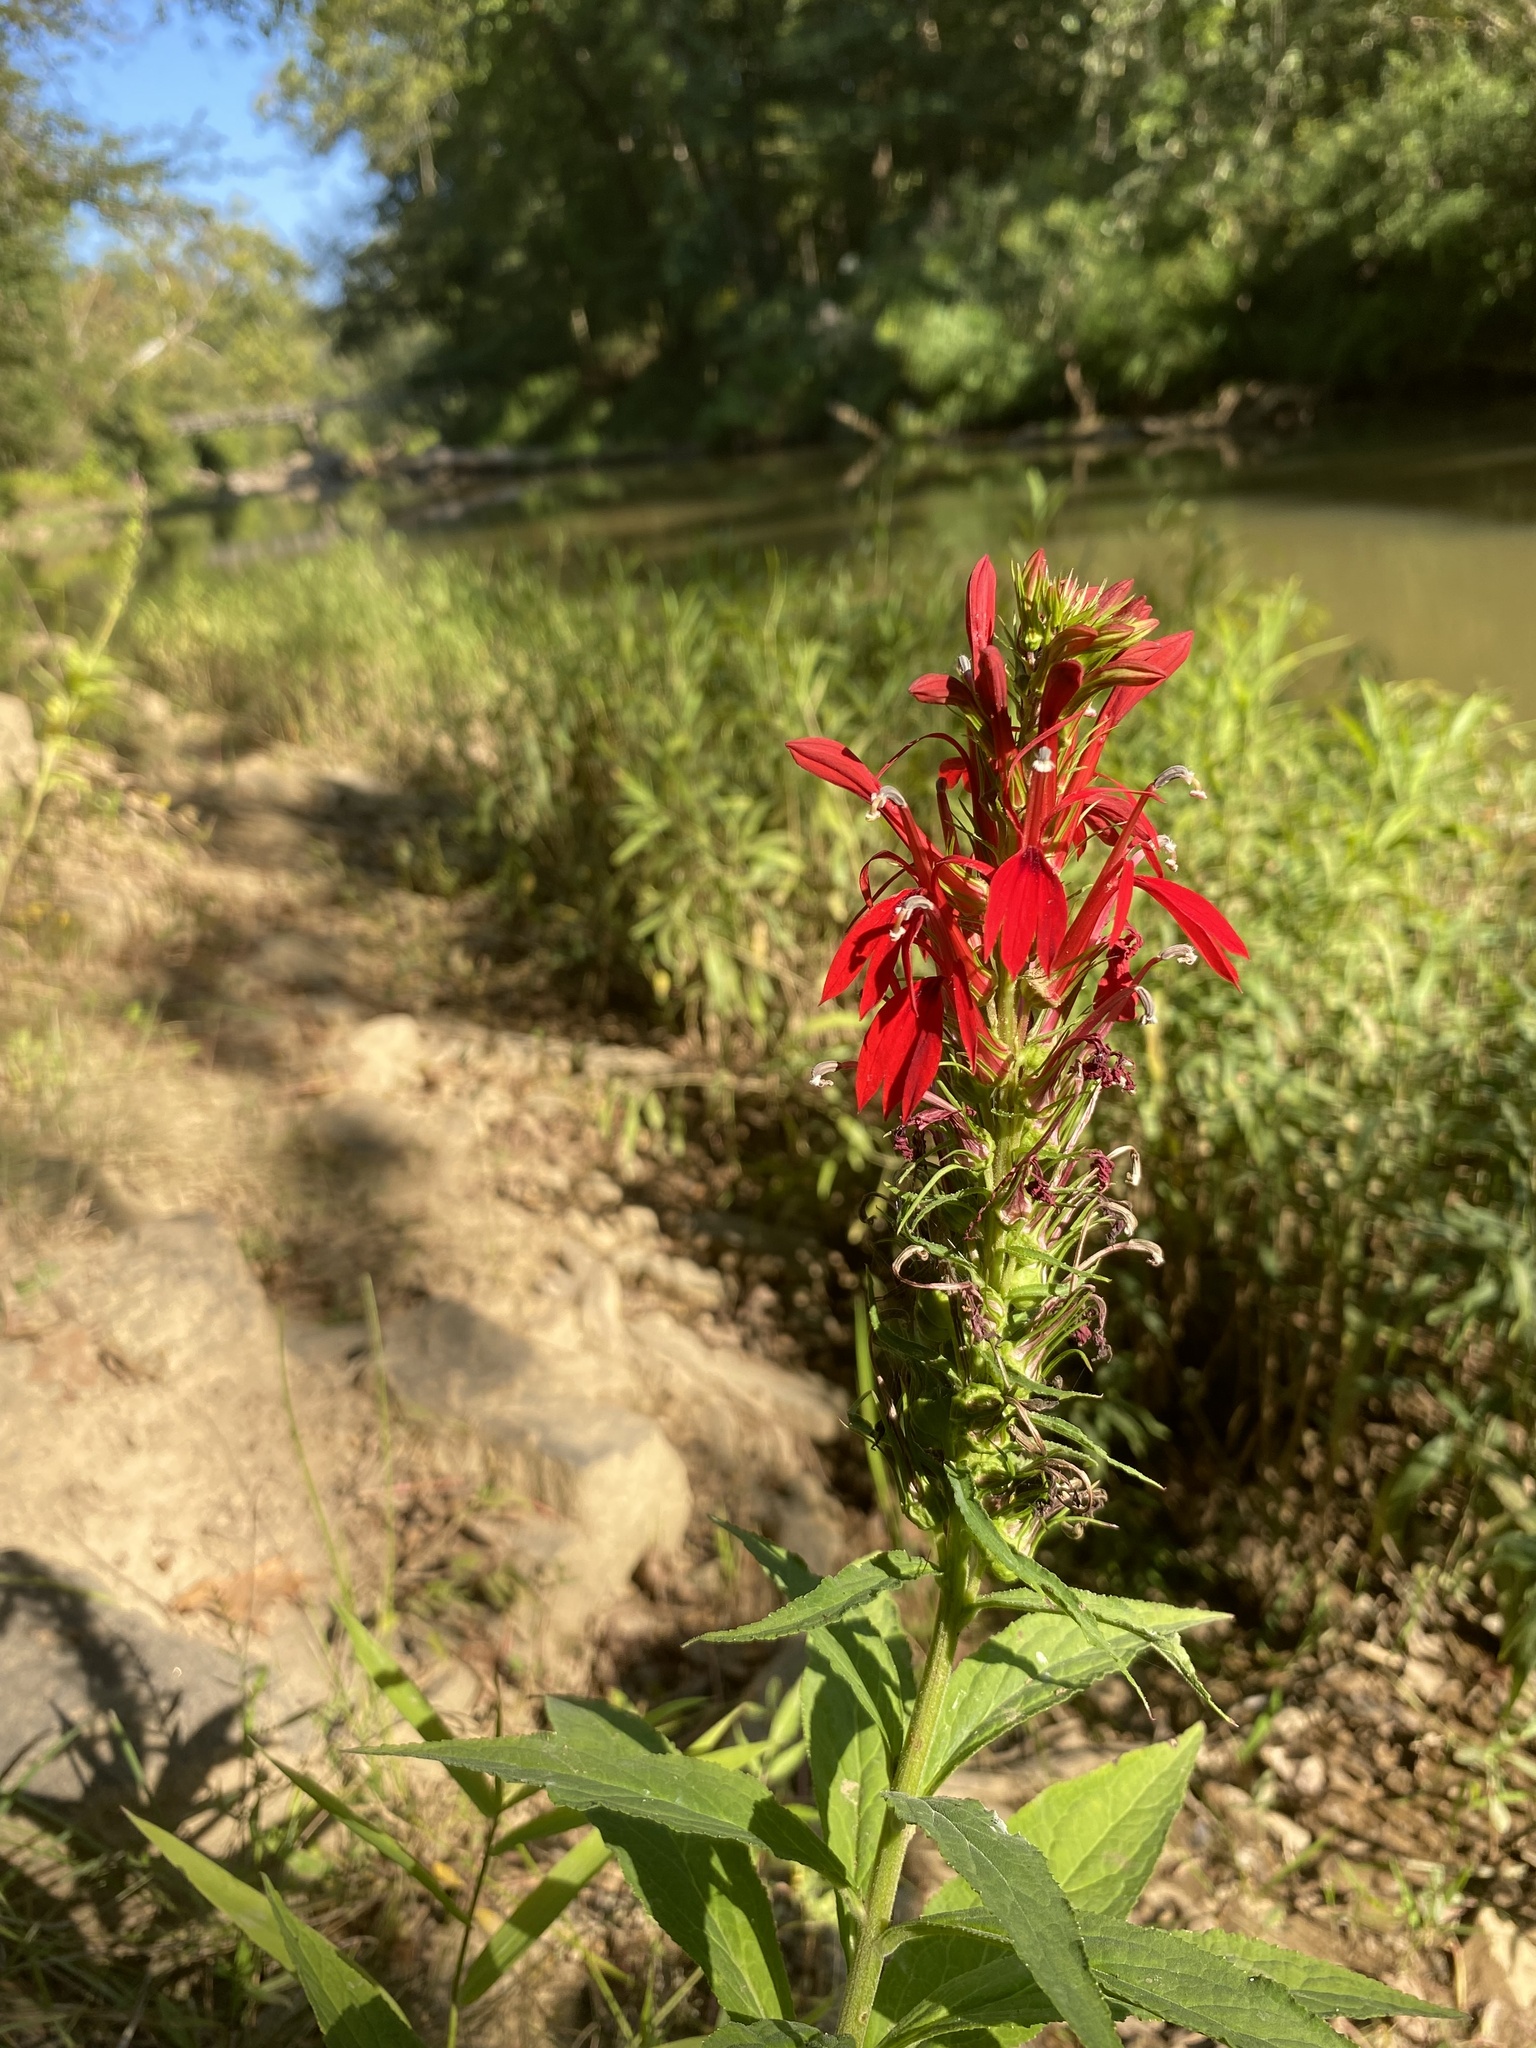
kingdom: Plantae
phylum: Tracheophyta
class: Magnoliopsida
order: Asterales
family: Campanulaceae
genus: Lobelia
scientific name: Lobelia cardinalis
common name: Cardinal flower
